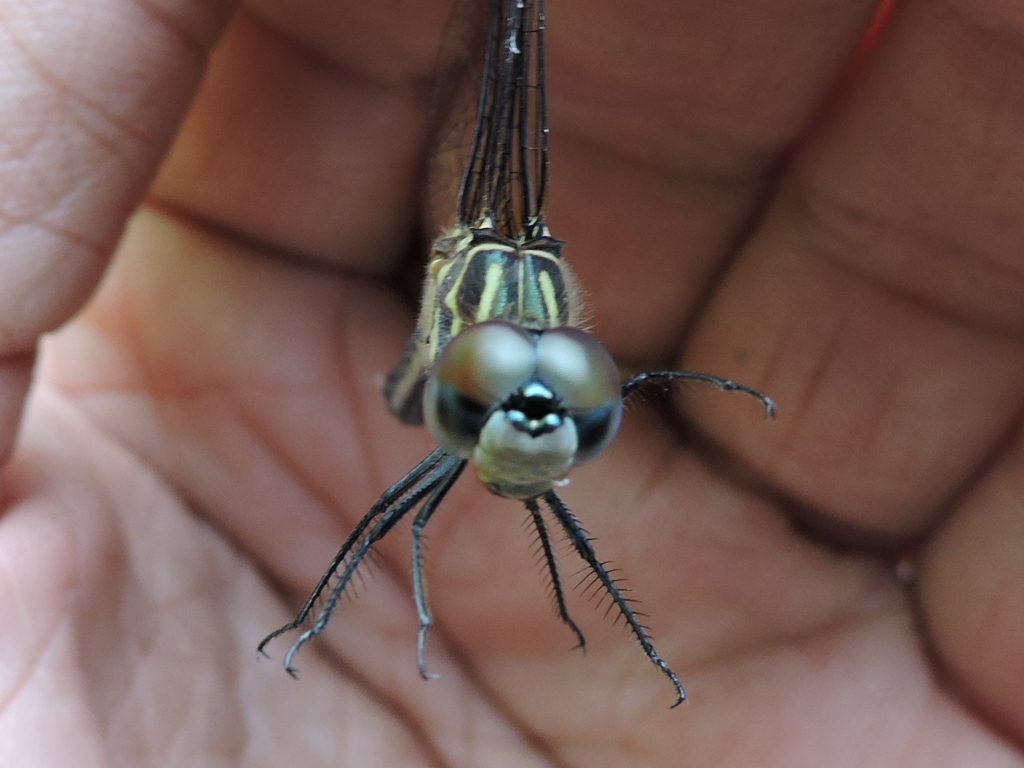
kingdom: Animalia
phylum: Arthropoda
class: Insecta
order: Odonata
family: Libellulidae
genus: Pachydiplax
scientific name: Pachydiplax longipennis
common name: Blue dasher
